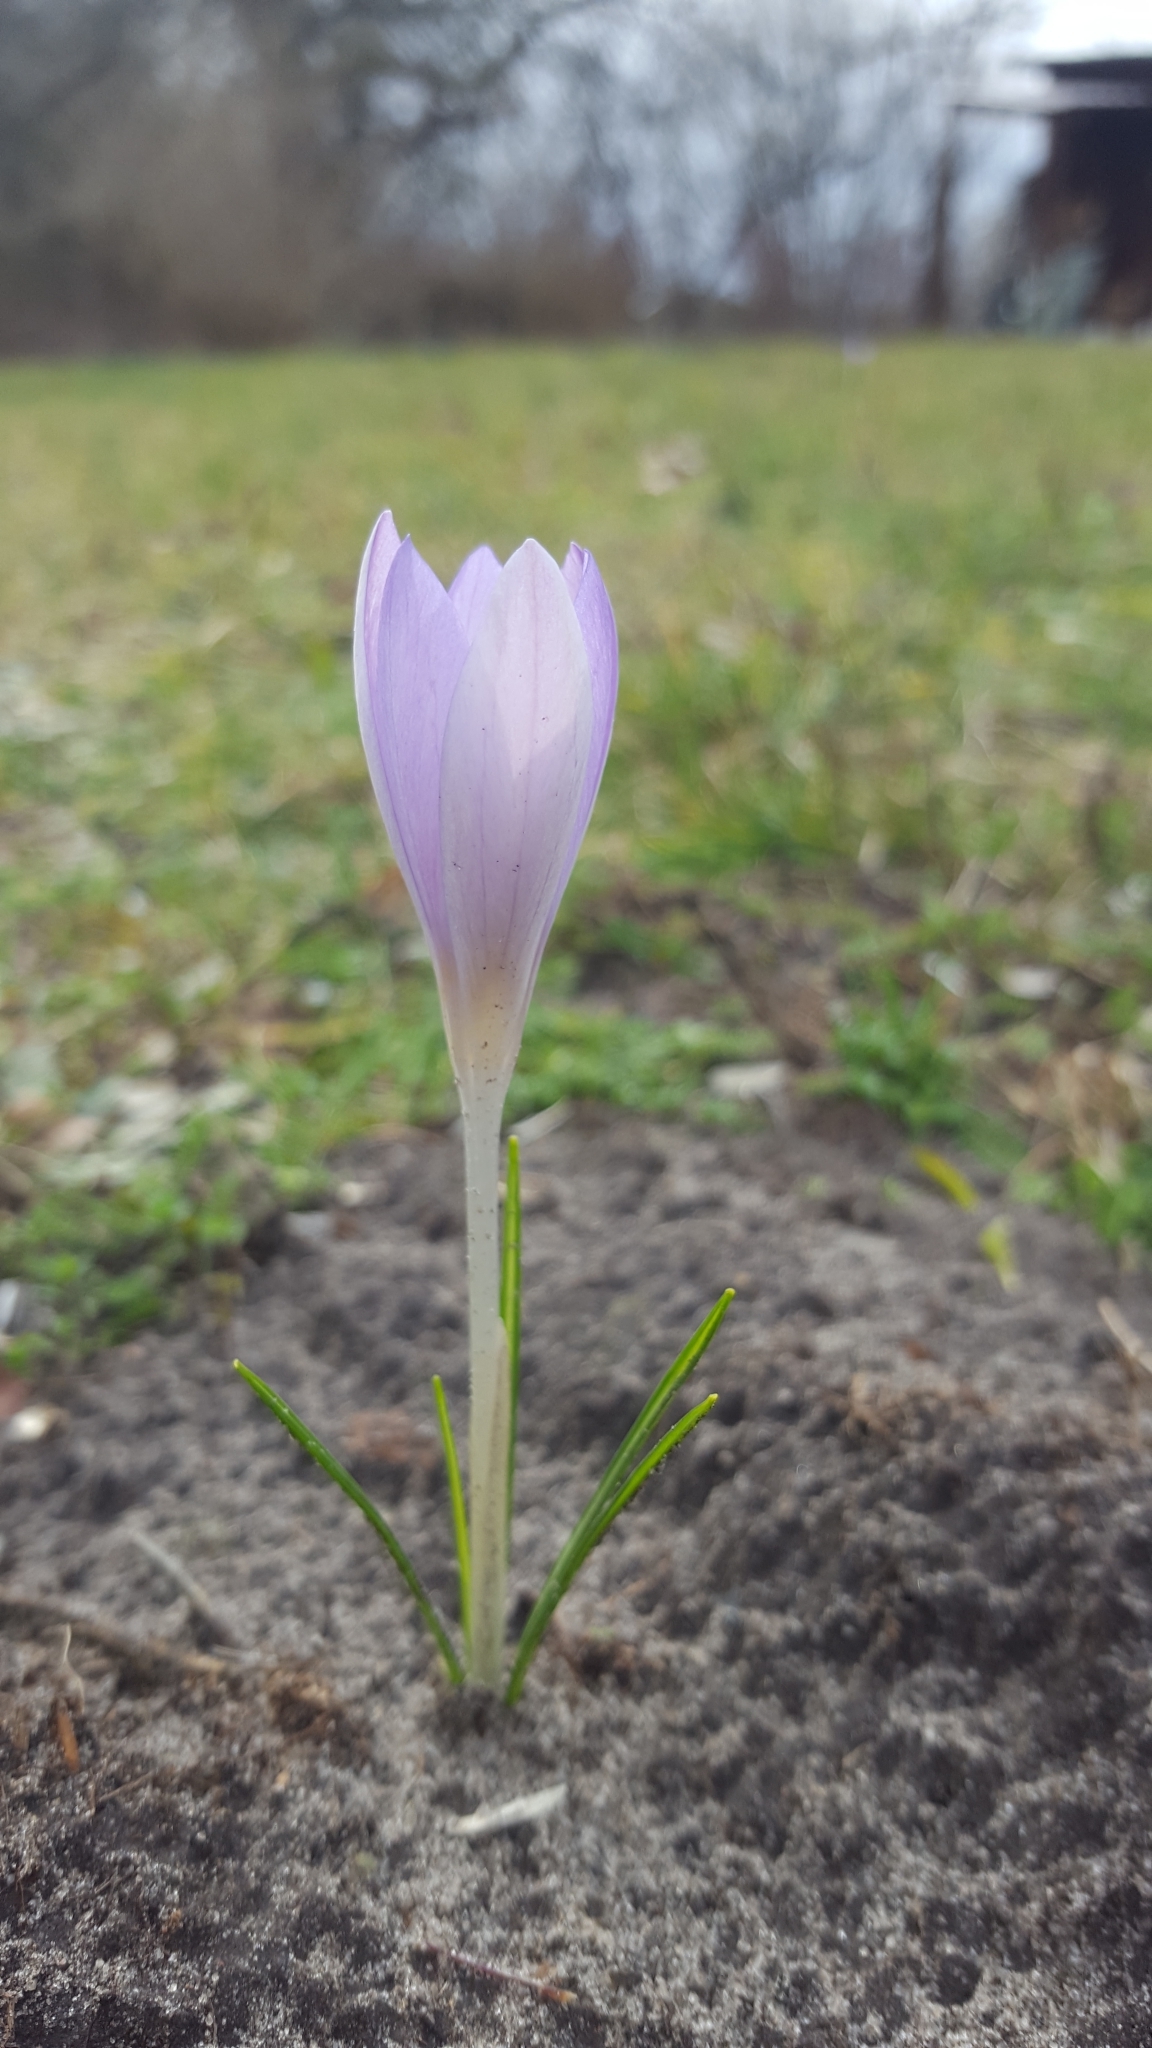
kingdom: Plantae
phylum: Tracheophyta
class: Liliopsida
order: Asparagales
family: Iridaceae
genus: Crocus
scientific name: Crocus tommasinianus
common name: Early crocus
